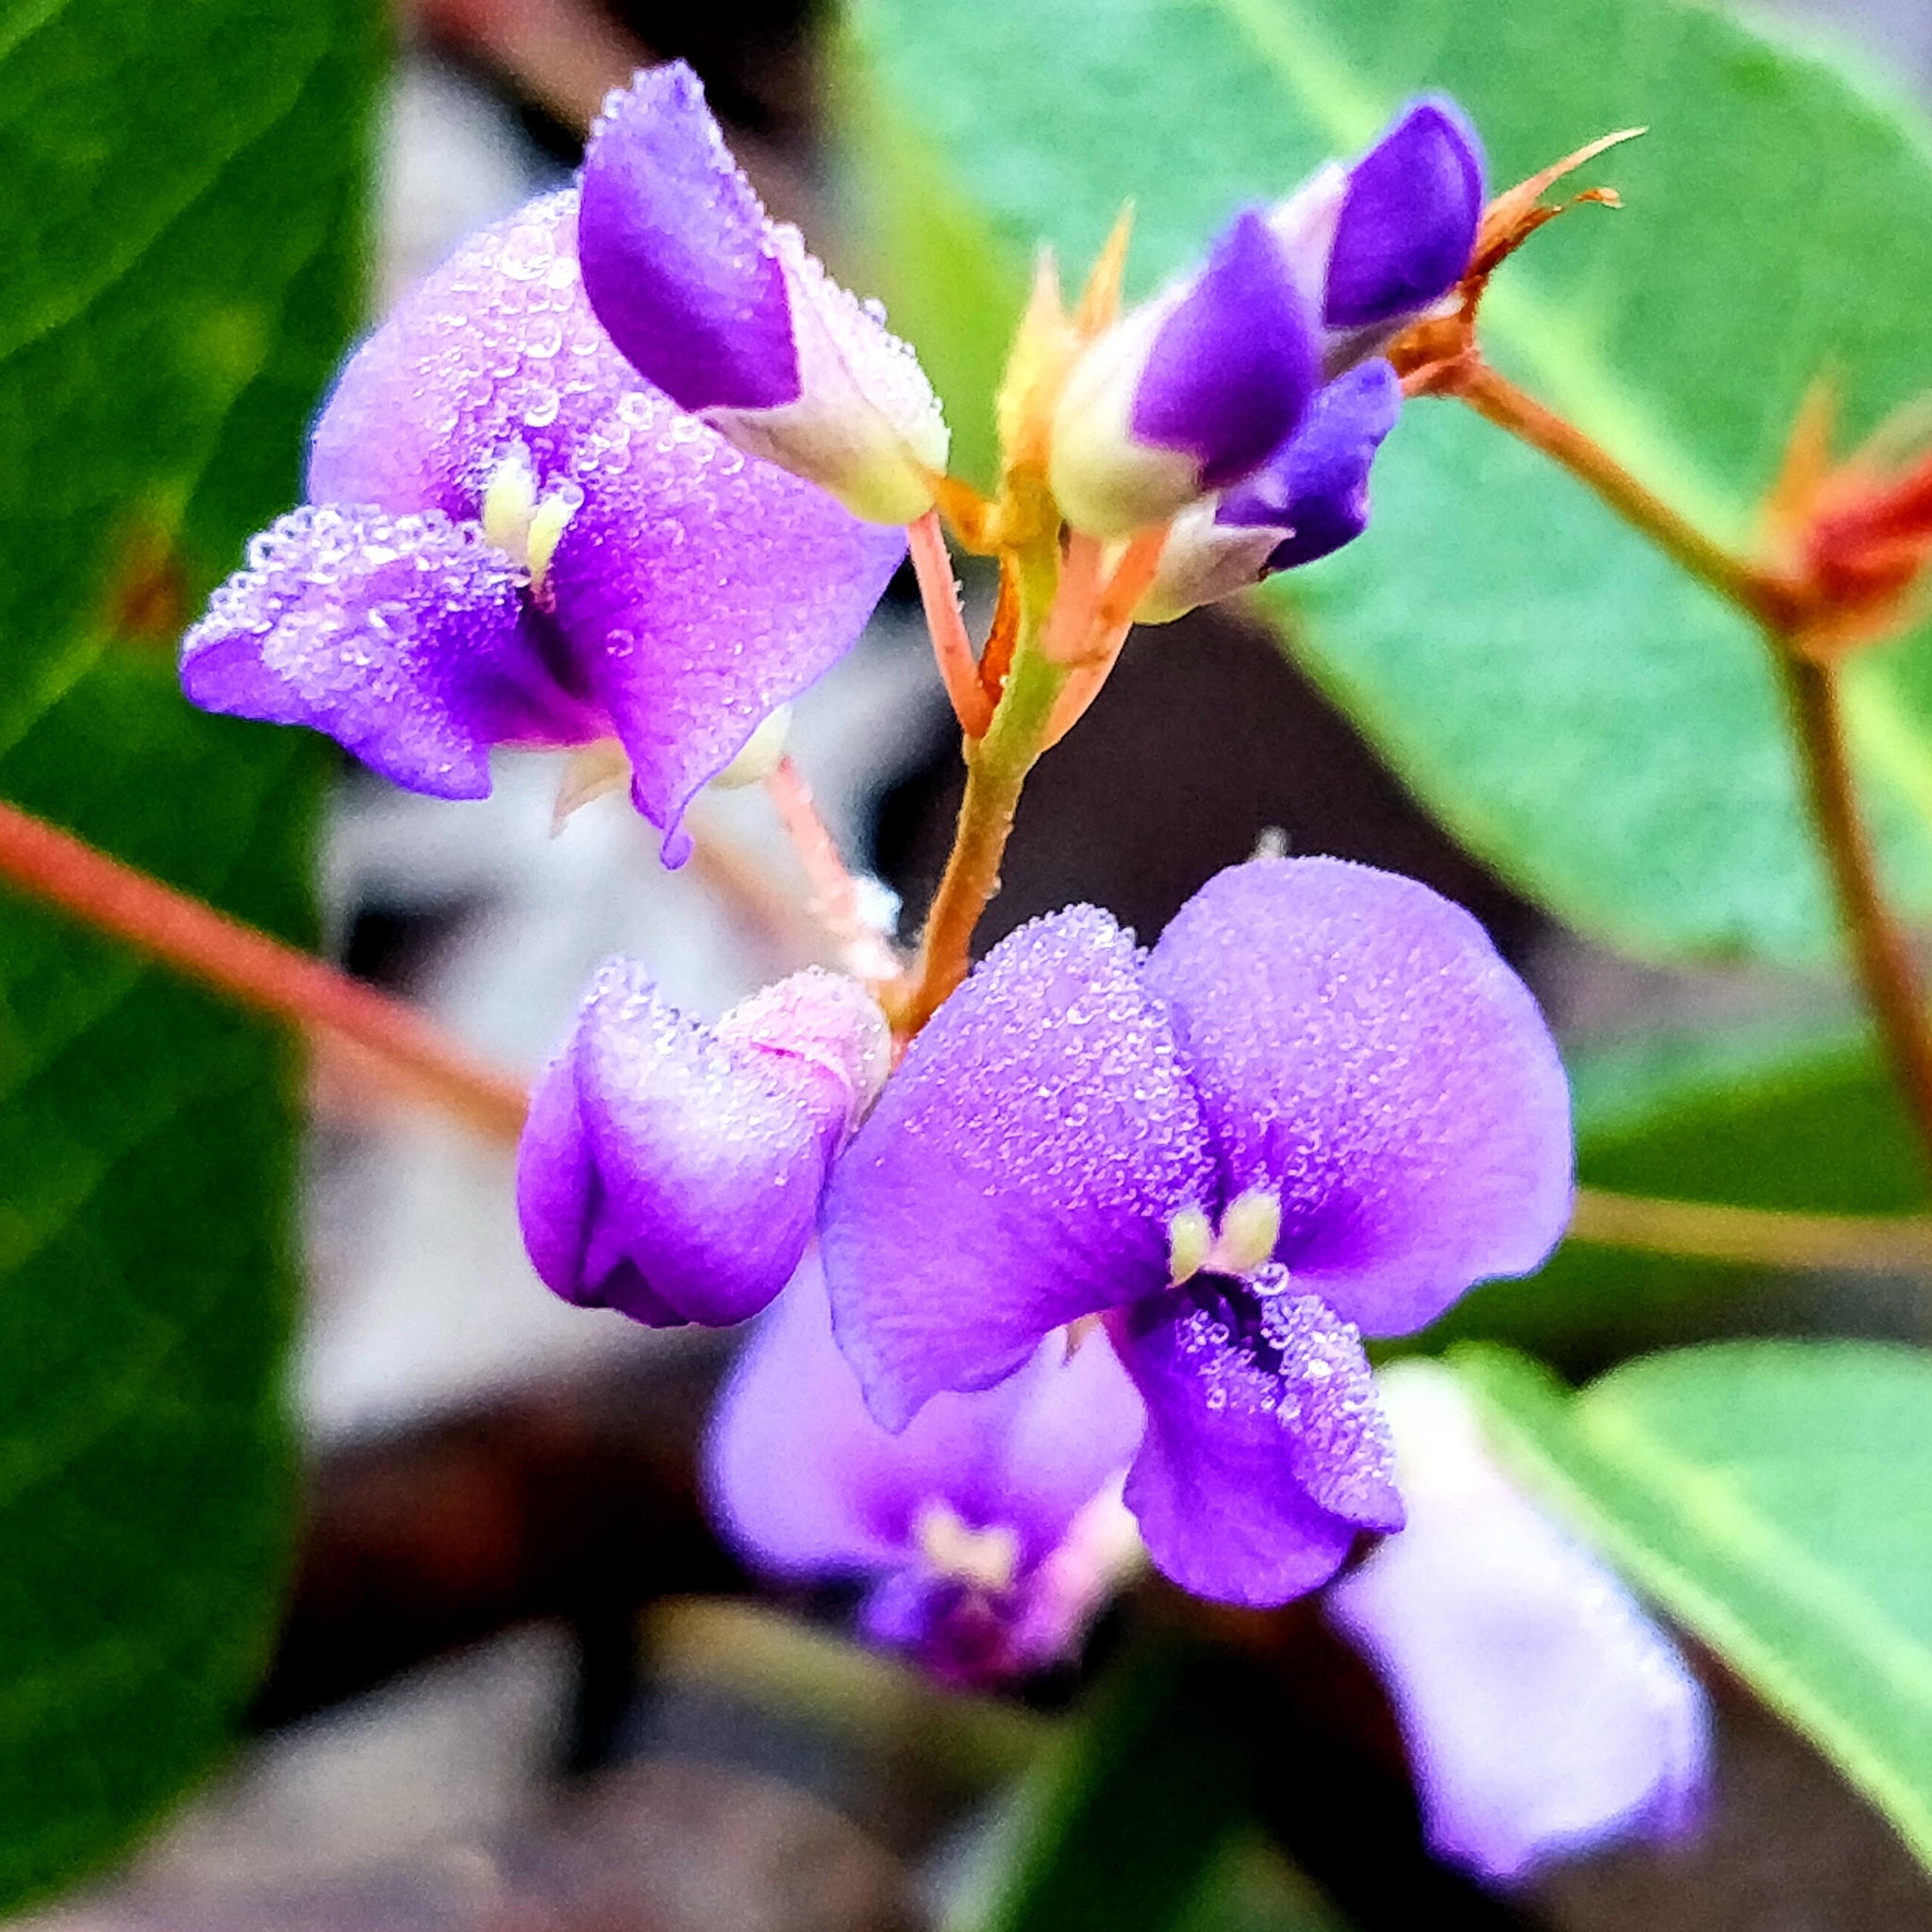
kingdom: Plantae
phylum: Tracheophyta
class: Magnoliopsida
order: Fabales
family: Fabaceae
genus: Hardenbergia
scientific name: Hardenbergia violacea
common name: Coral-pea
